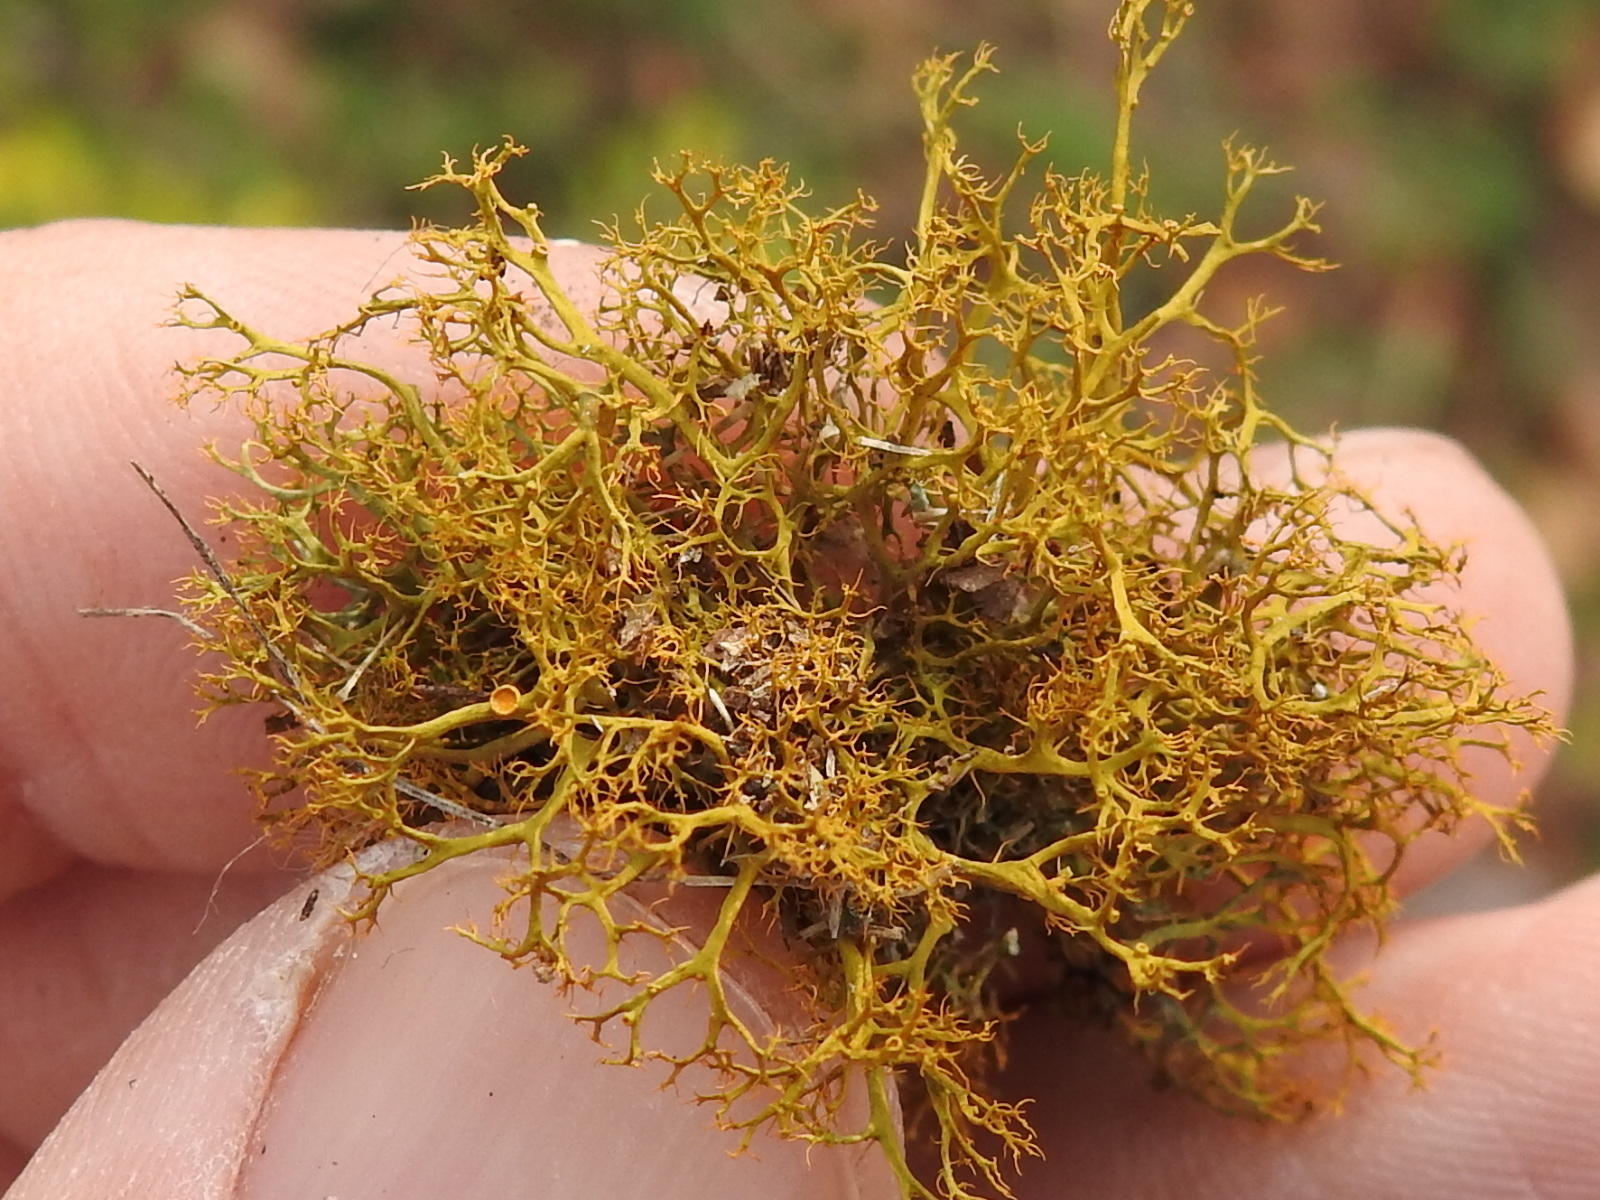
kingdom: Fungi
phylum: Ascomycota
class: Lecanoromycetes
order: Teloschistales
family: Teloschistaceae
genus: Teloschistes
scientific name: Teloschistes exilis
